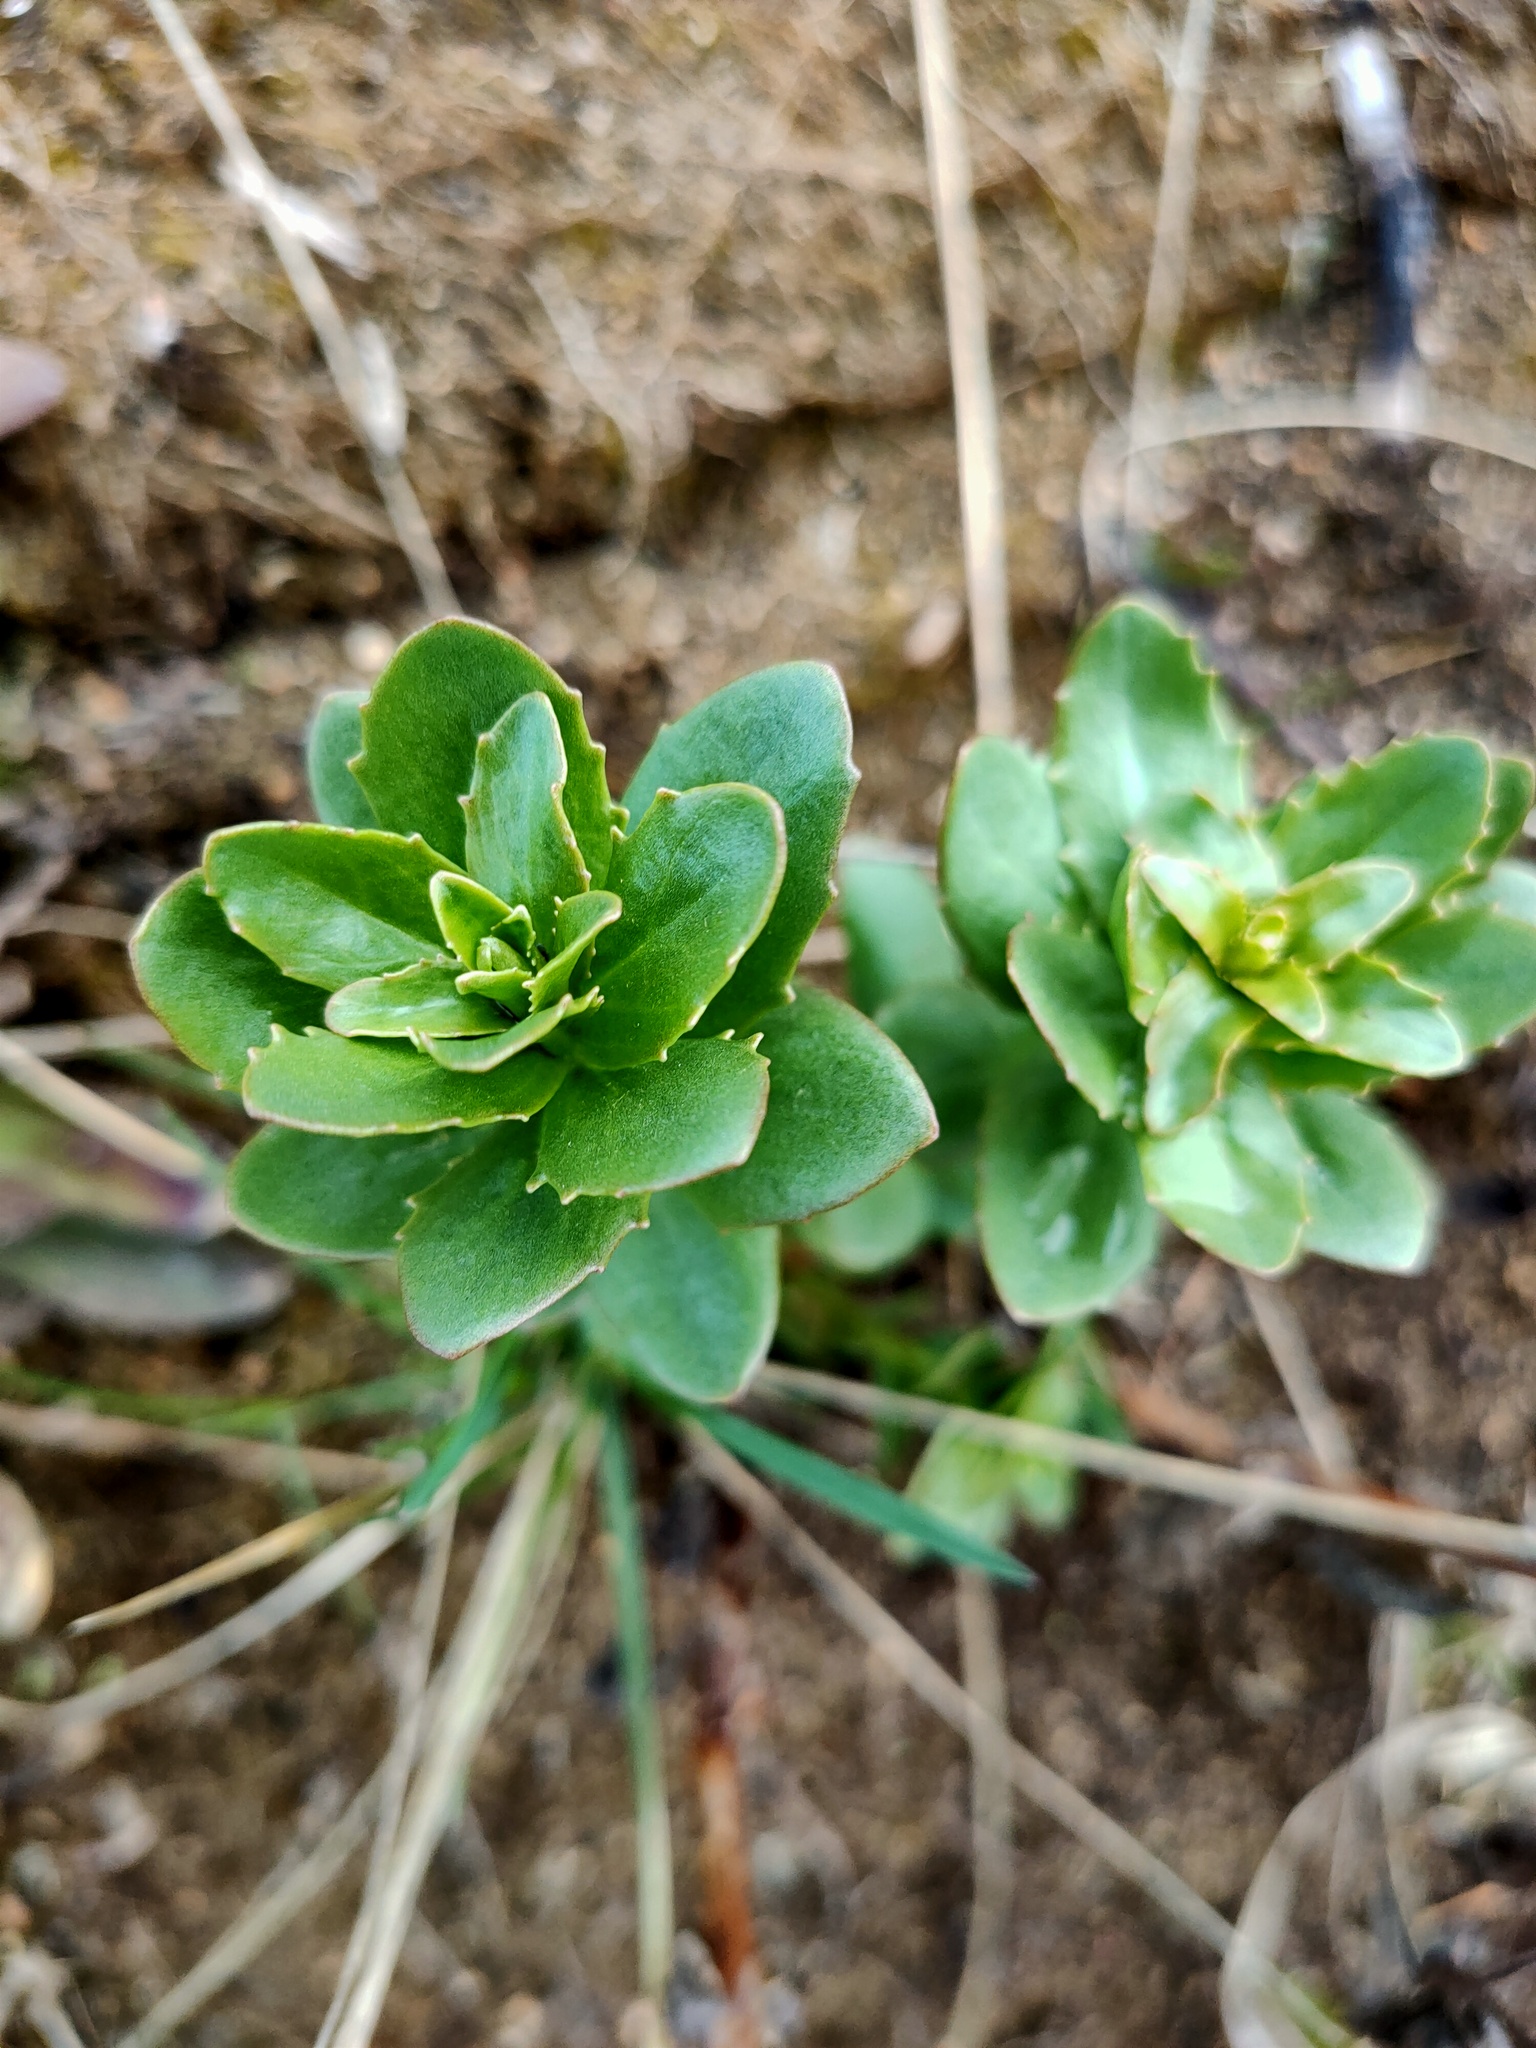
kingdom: Plantae
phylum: Tracheophyta
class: Magnoliopsida
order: Saxifragales
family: Crassulaceae
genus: Hylotelephium
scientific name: Hylotelephium telephium
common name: Live-forever
